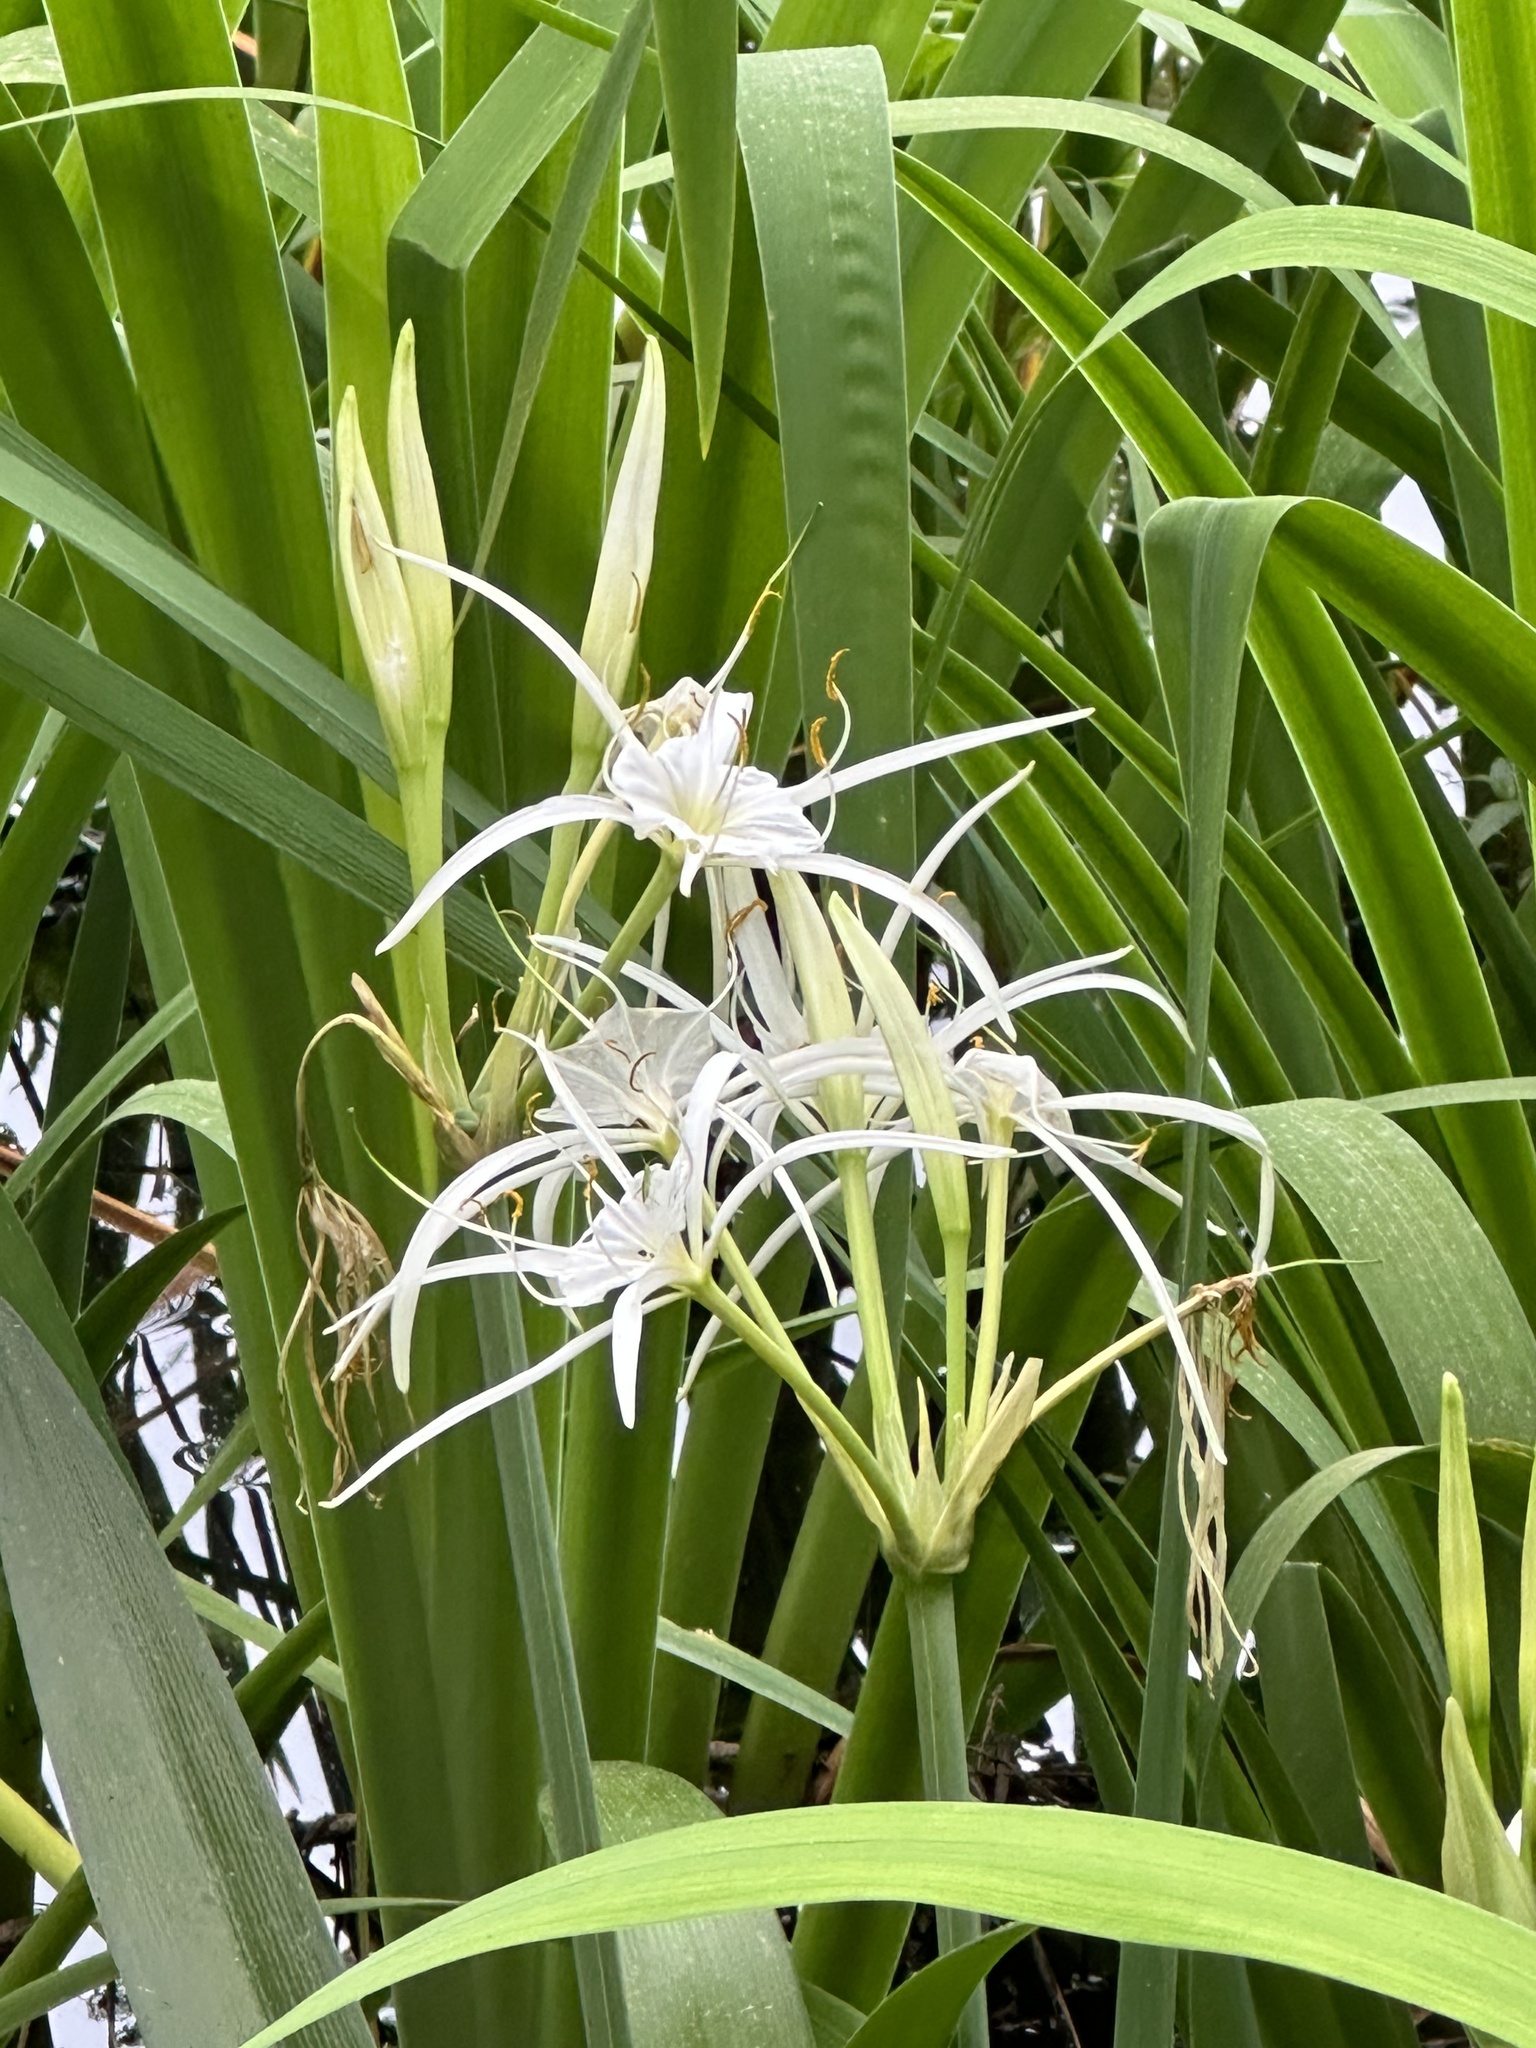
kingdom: Plantae
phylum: Tracheophyta
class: Liliopsida
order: Asparagales
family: Amaryllidaceae
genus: Hymenocallis
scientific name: Hymenocallis liriosme
